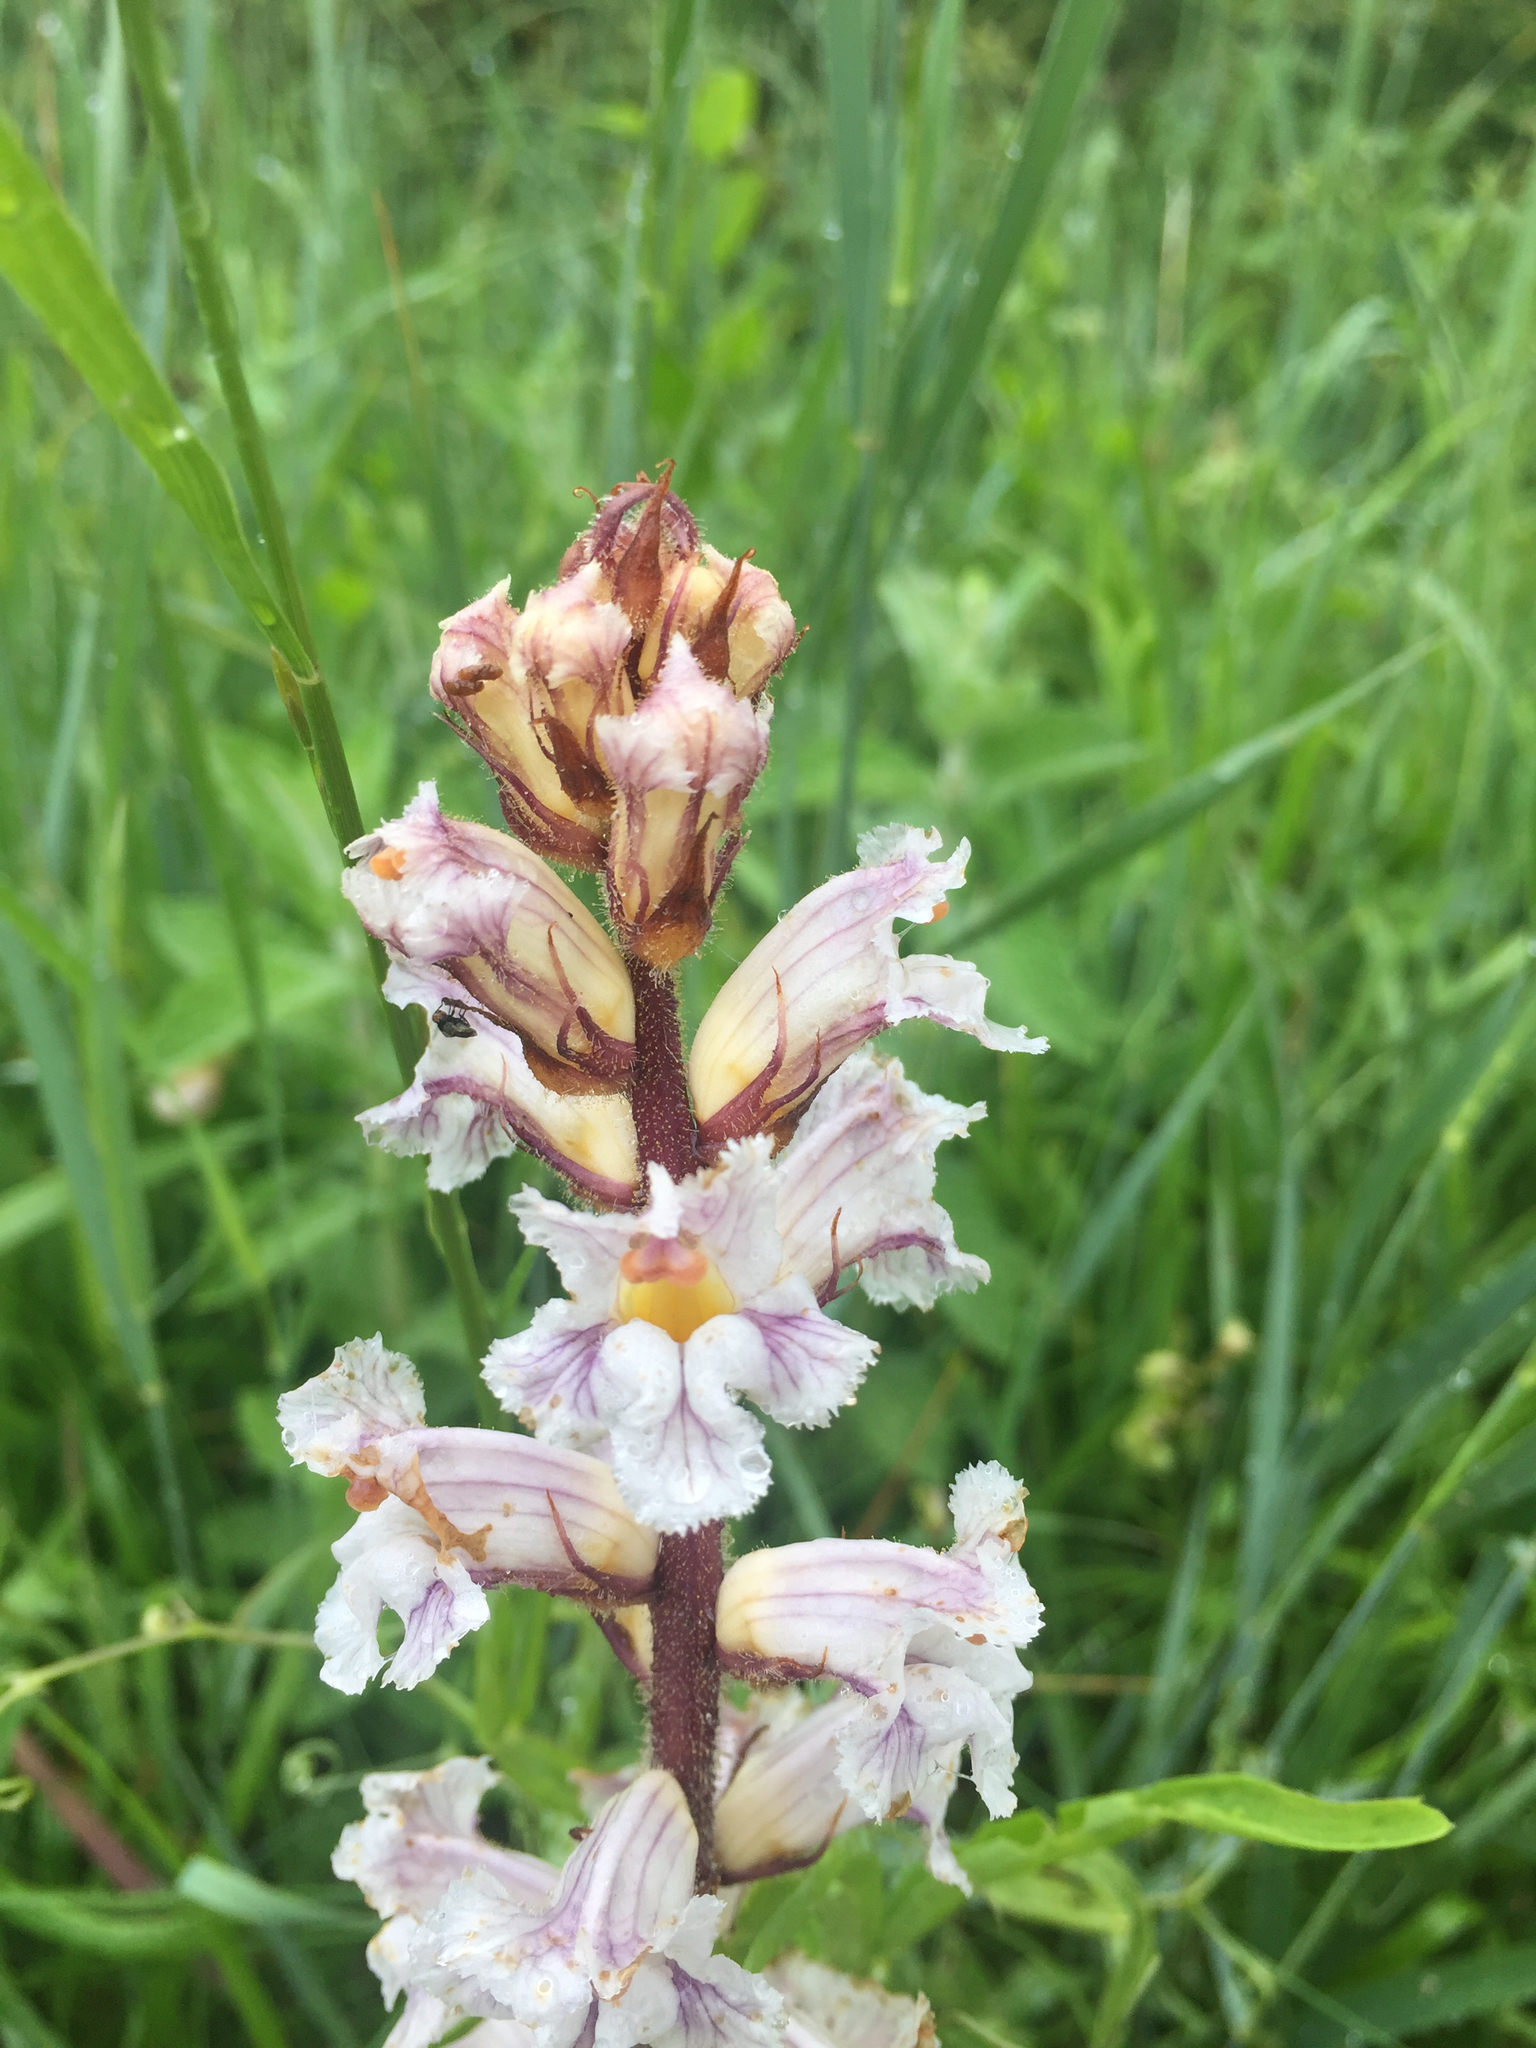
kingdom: Plantae
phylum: Tracheophyta
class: Magnoliopsida
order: Lamiales
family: Orobanchaceae
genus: Orobanche
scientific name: Orobanche crenata
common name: Bean broomrape
